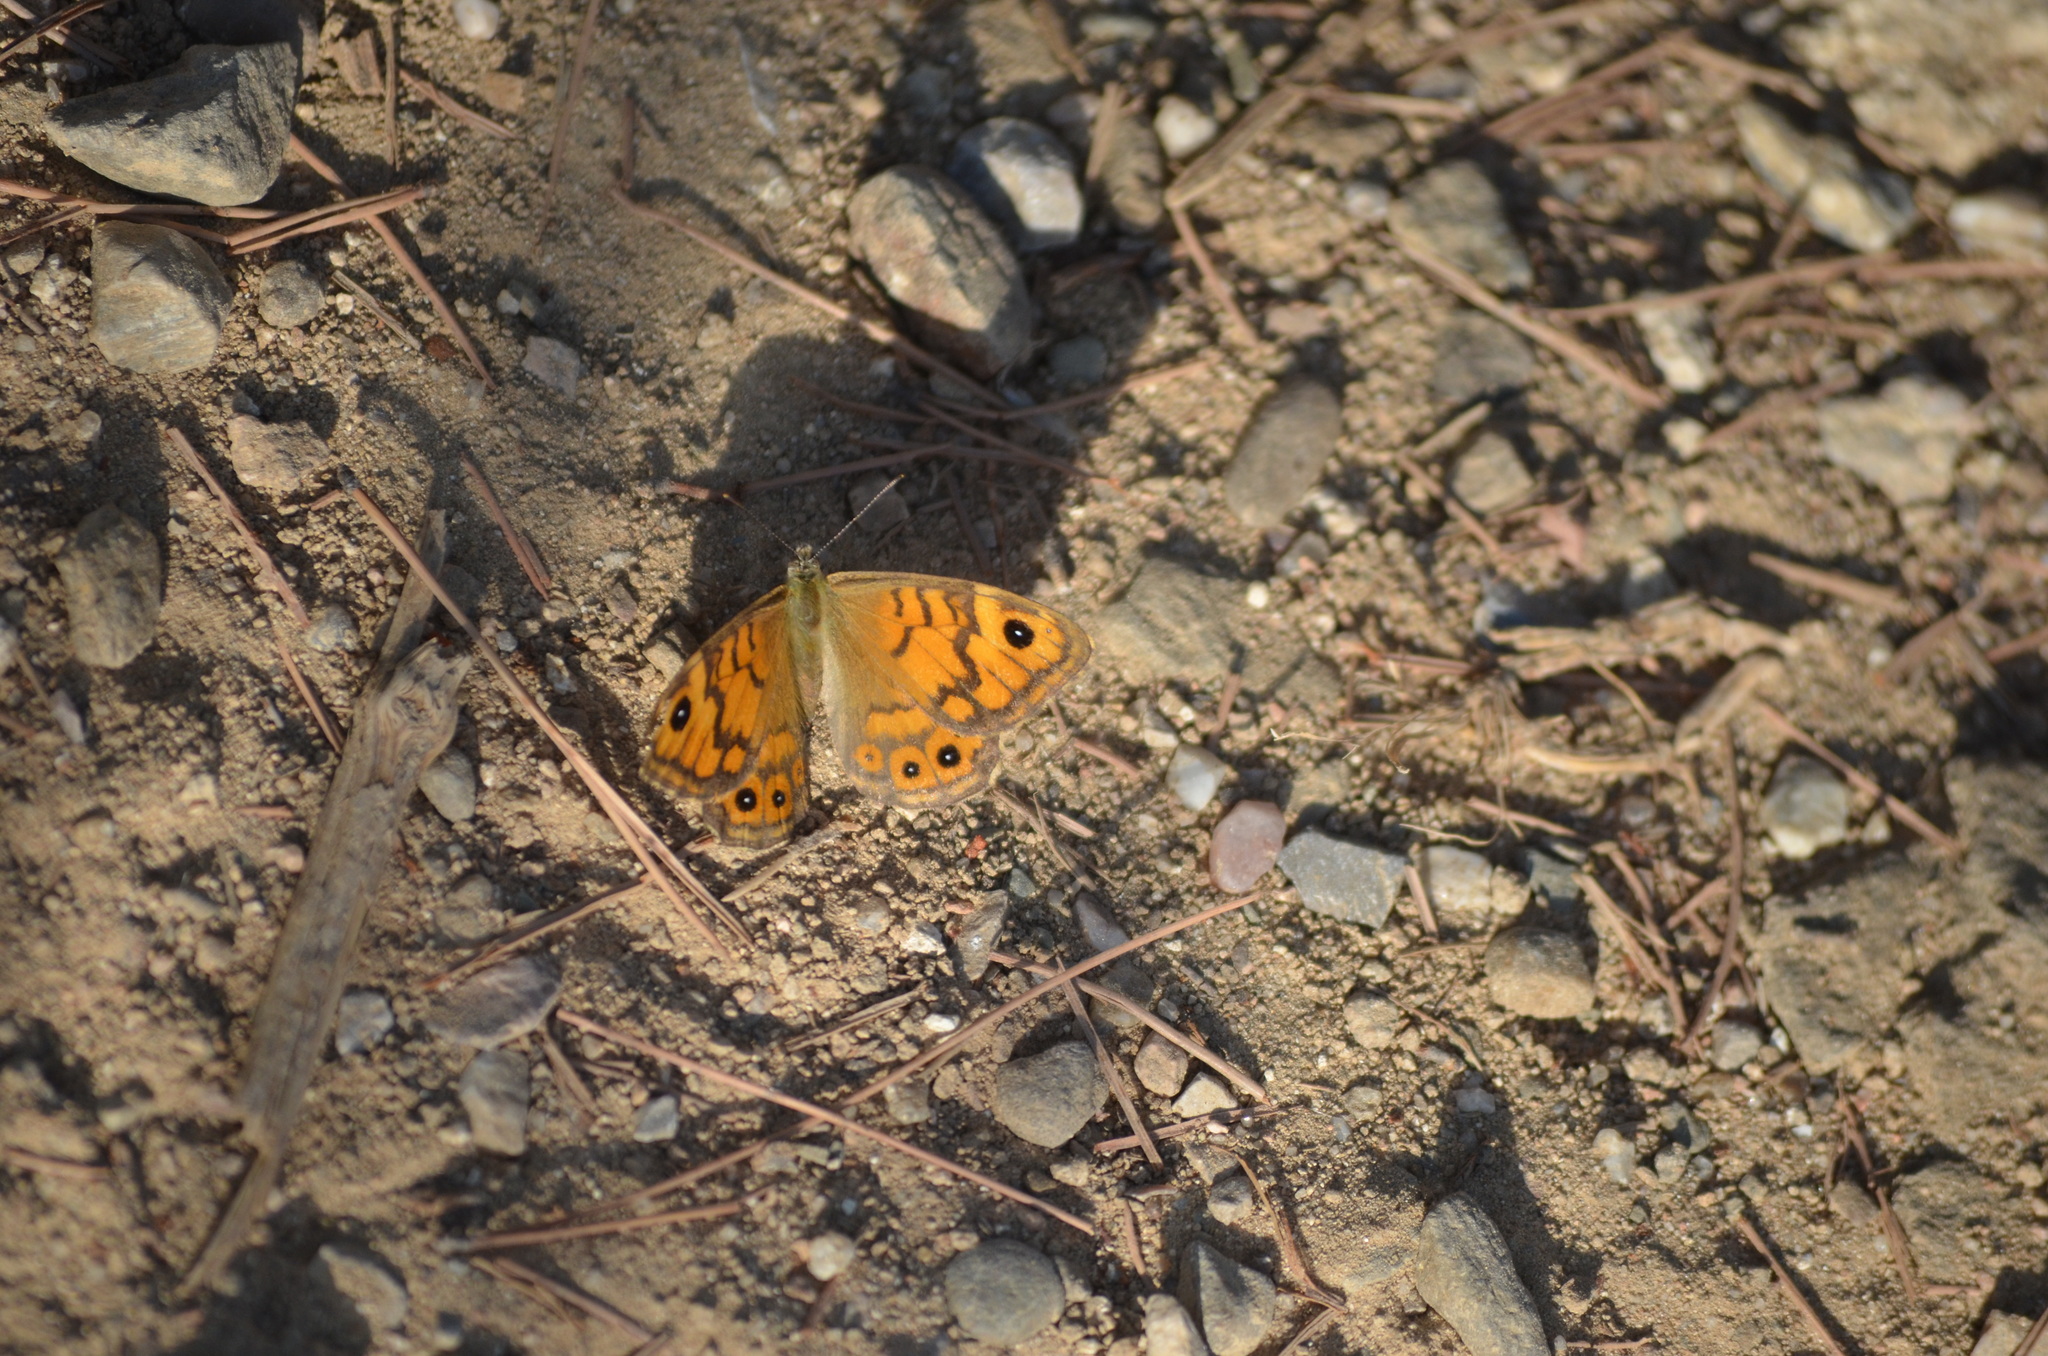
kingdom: Animalia
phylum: Arthropoda
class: Insecta
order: Lepidoptera
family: Nymphalidae
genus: Pararge
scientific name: Pararge Lasiommata megera
